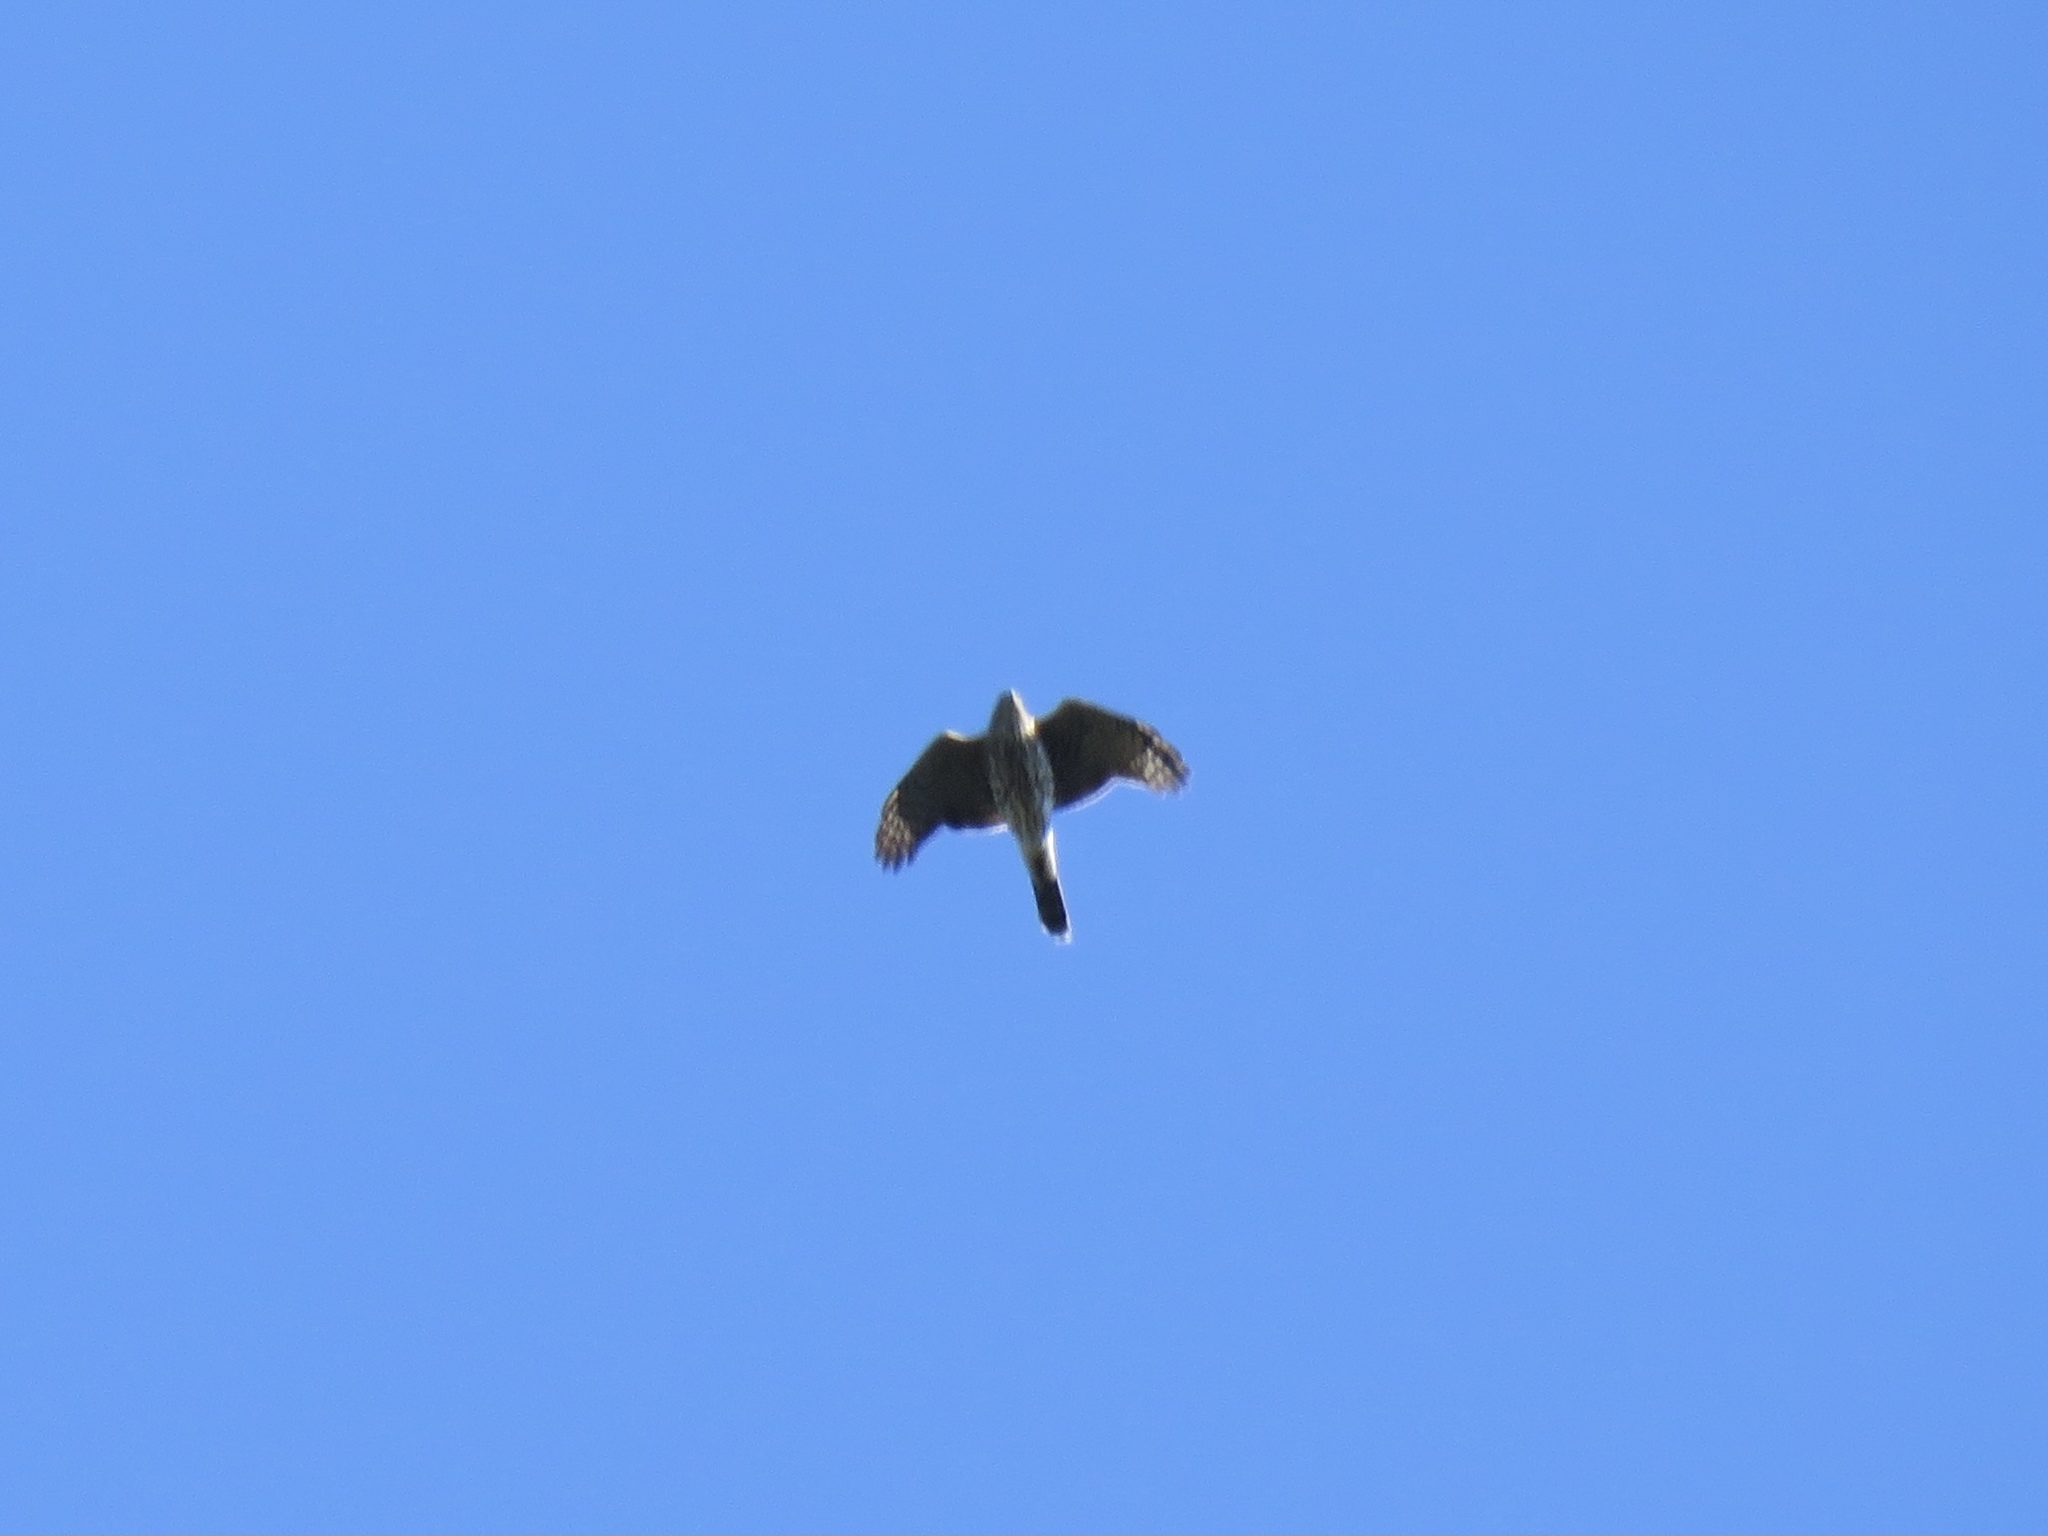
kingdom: Animalia
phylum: Chordata
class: Aves
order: Accipitriformes
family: Accipitridae
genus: Accipiter
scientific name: Accipiter cooperii
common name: Cooper's hawk
